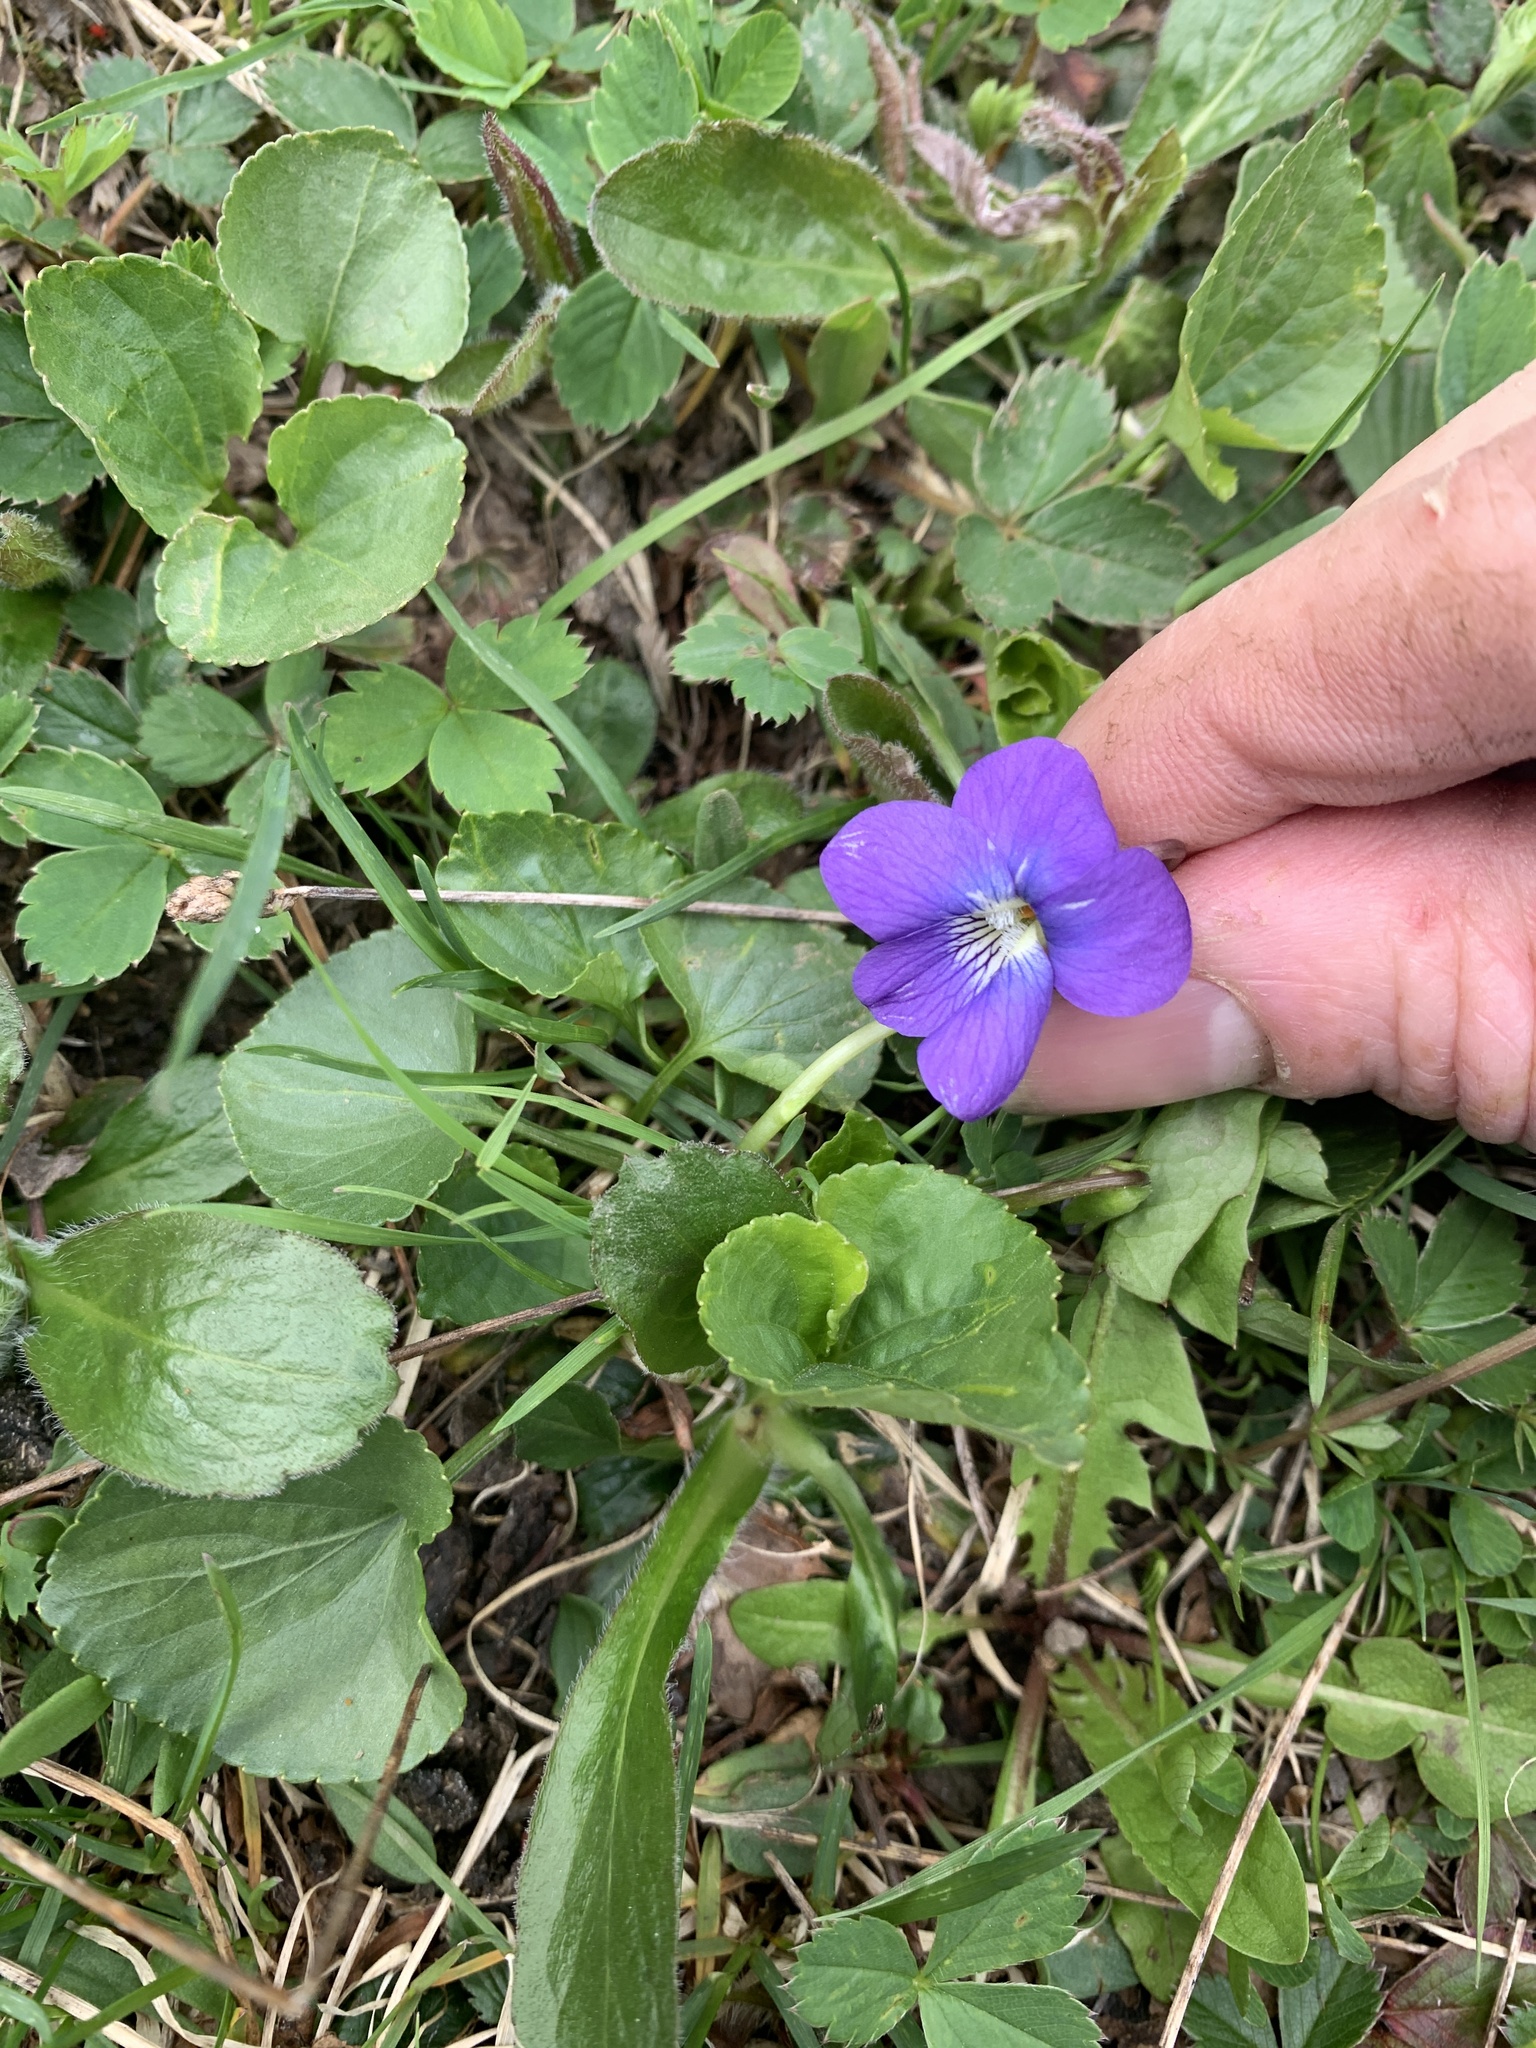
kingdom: Plantae
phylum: Tracheophyta
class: Magnoliopsida
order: Malpighiales
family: Violaceae
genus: Viola
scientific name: Viola sororia
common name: Dooryard violet
